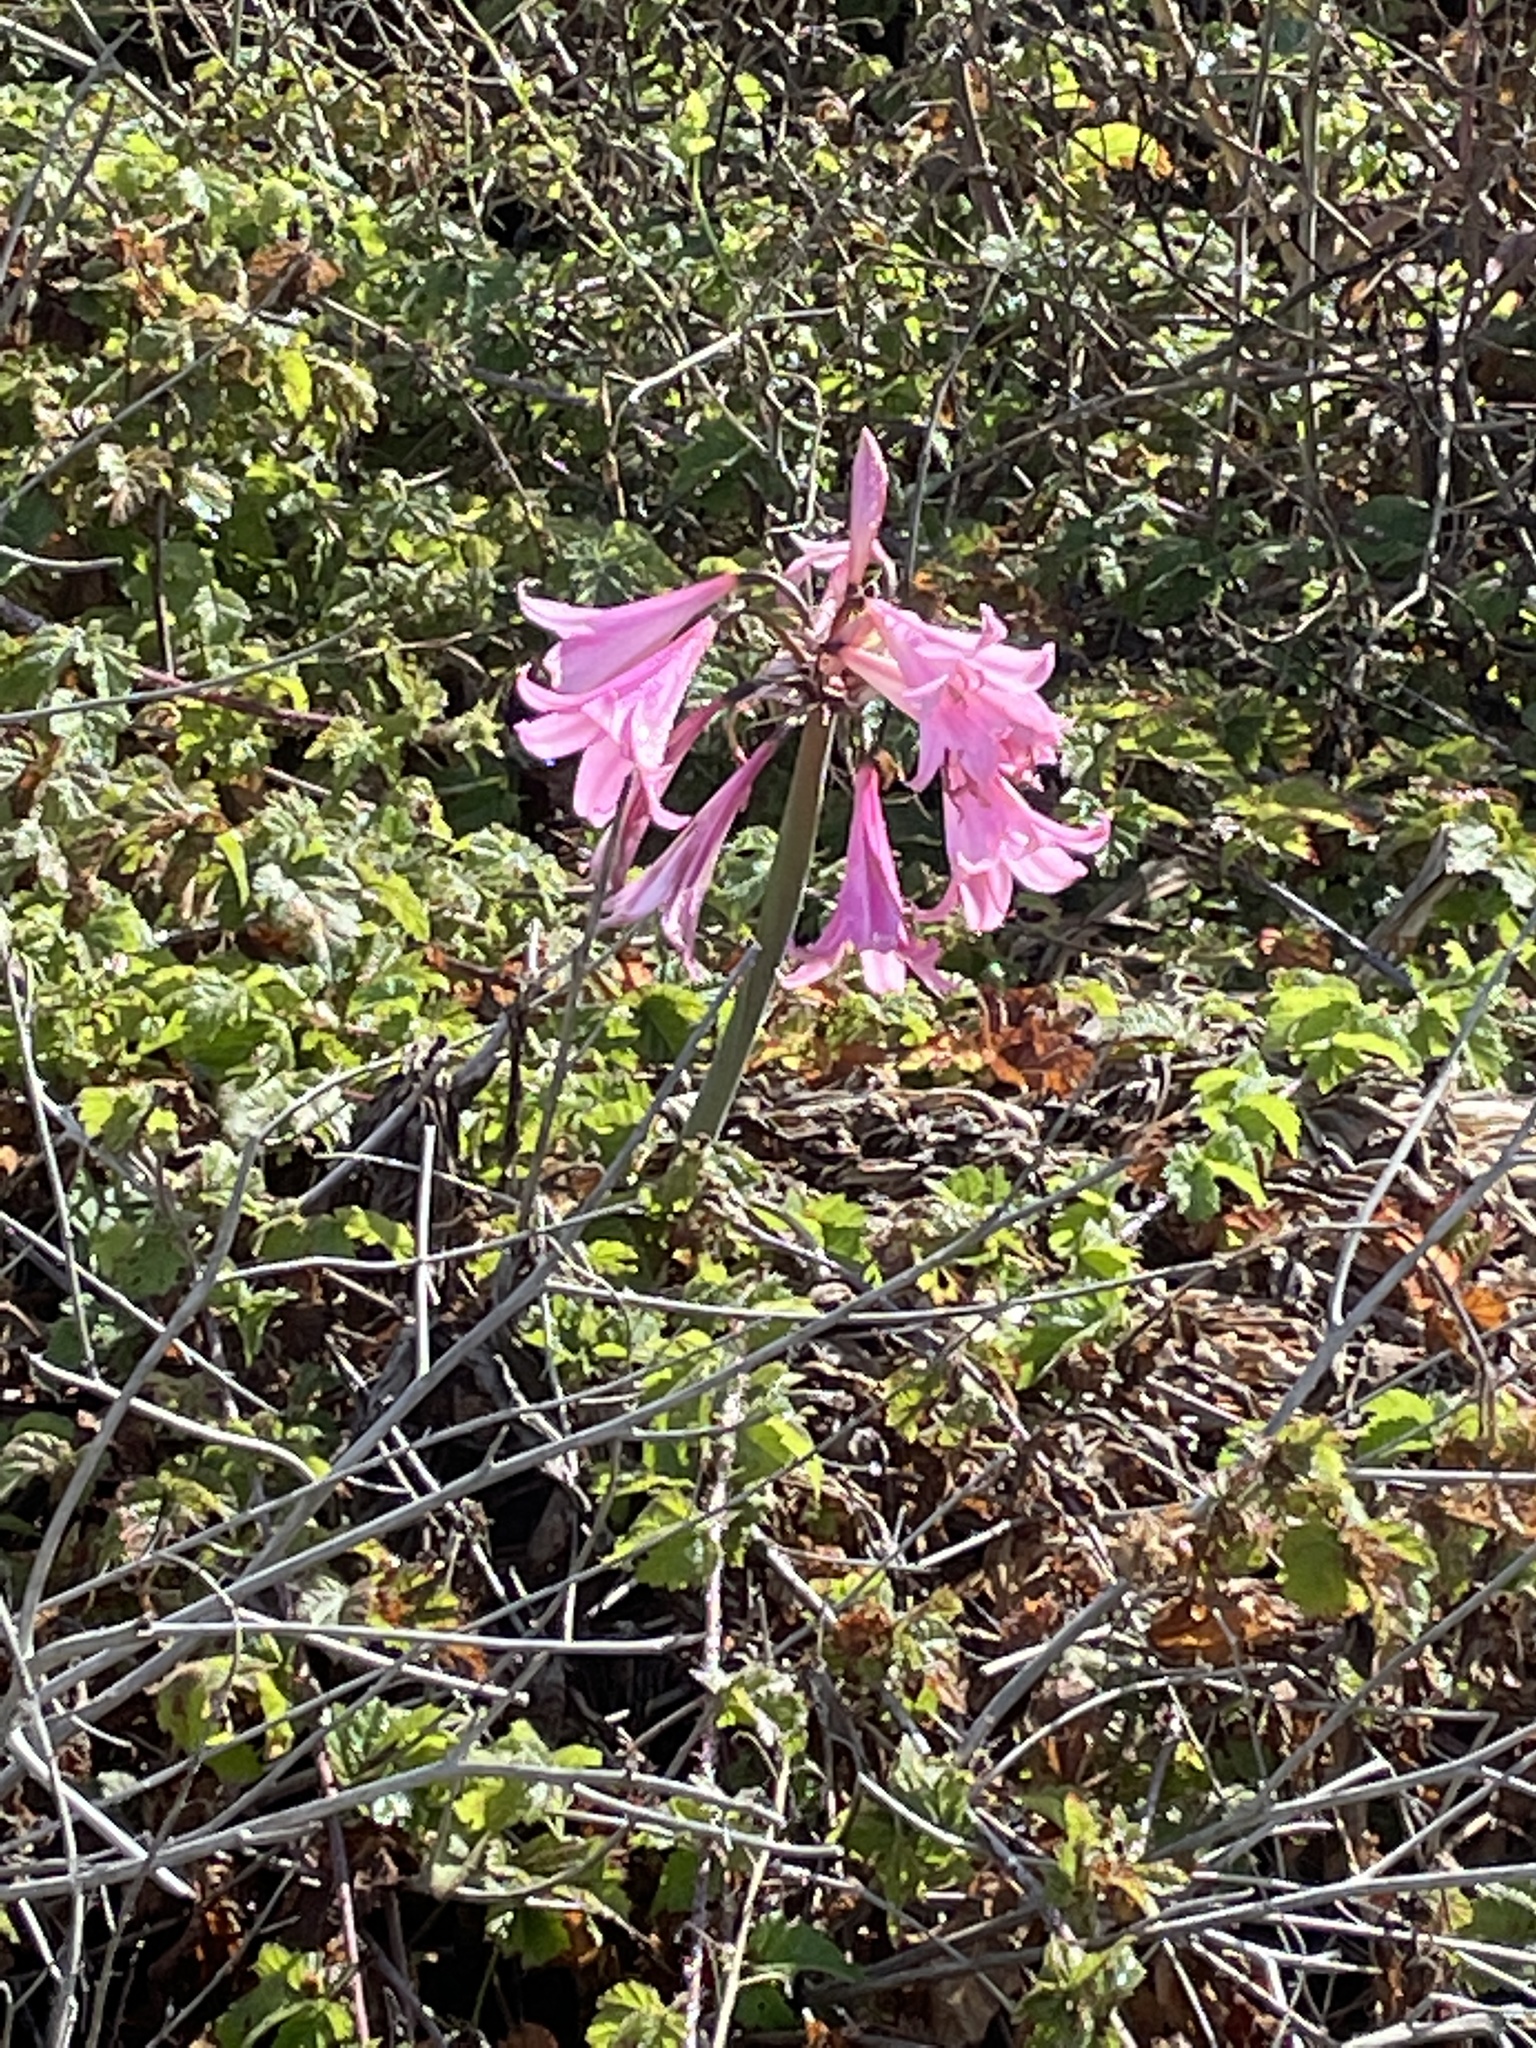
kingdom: Plantae
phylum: Tracheophyta
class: Liliopsida
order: Asparagales
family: Amaryllidaceae
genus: Amaryllis
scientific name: Amaryllis belladonna
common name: Jersey lily
